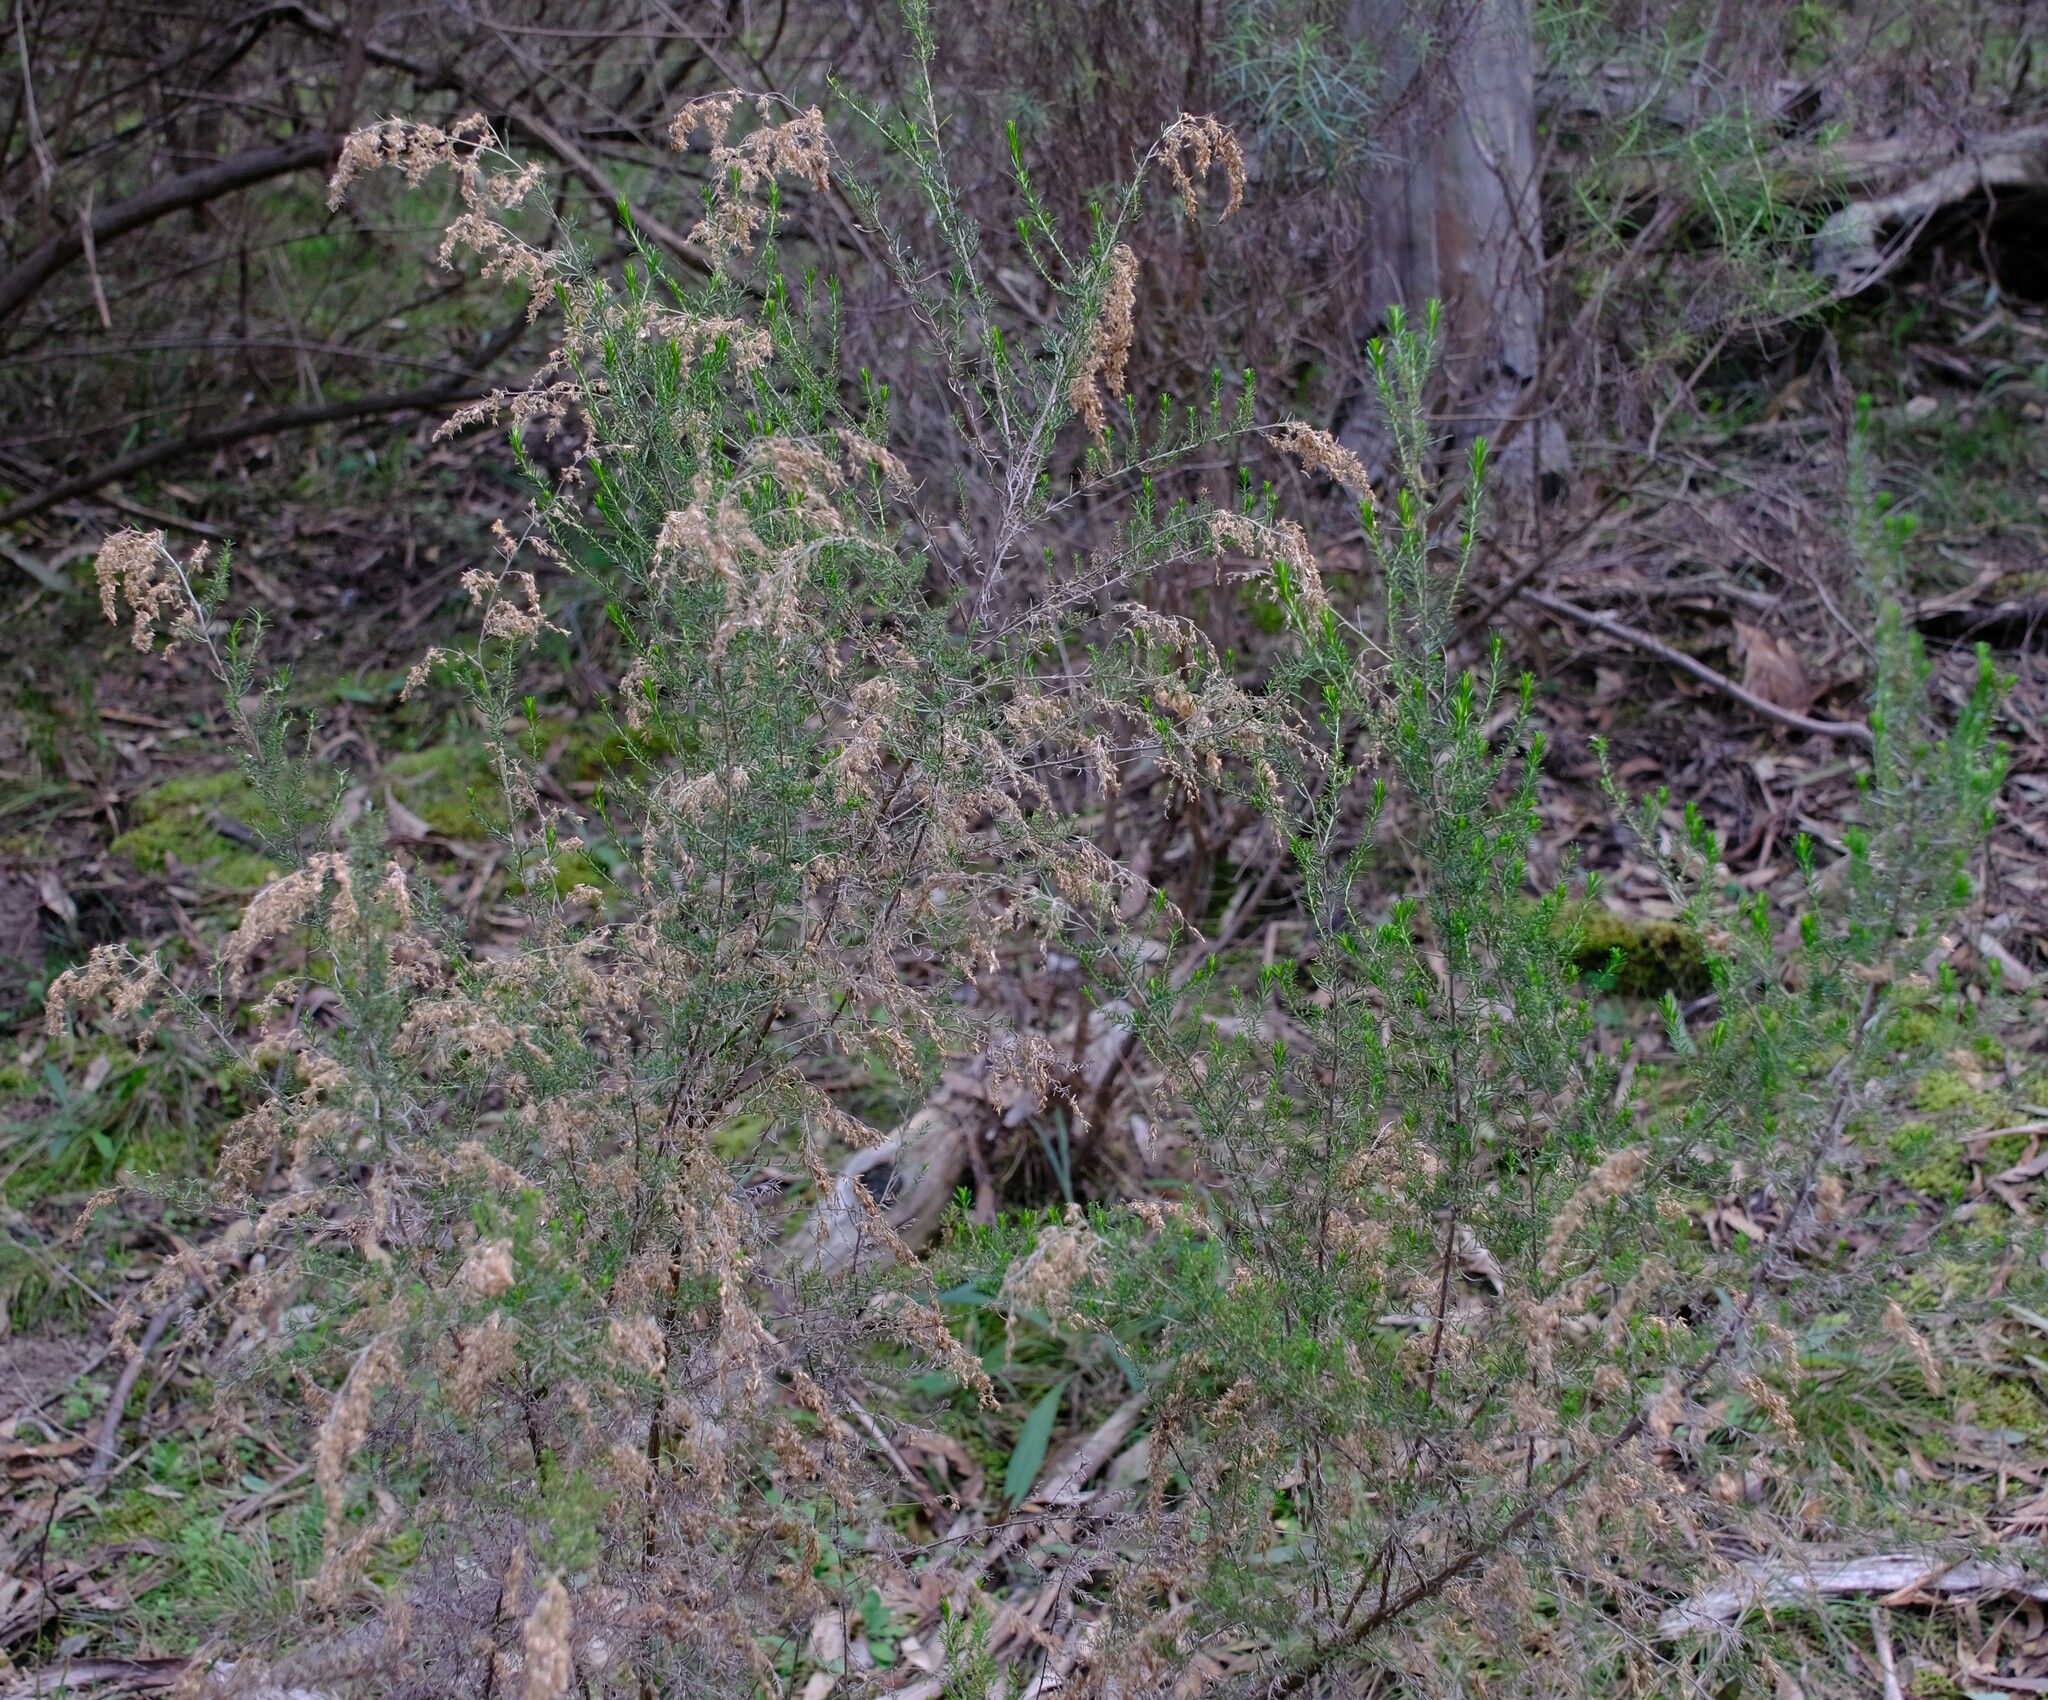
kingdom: Plantae
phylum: Tracheophyta
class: Magnoliopsida
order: Asterales
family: Asteraceae
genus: Cassinia
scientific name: Cassinia sifton
